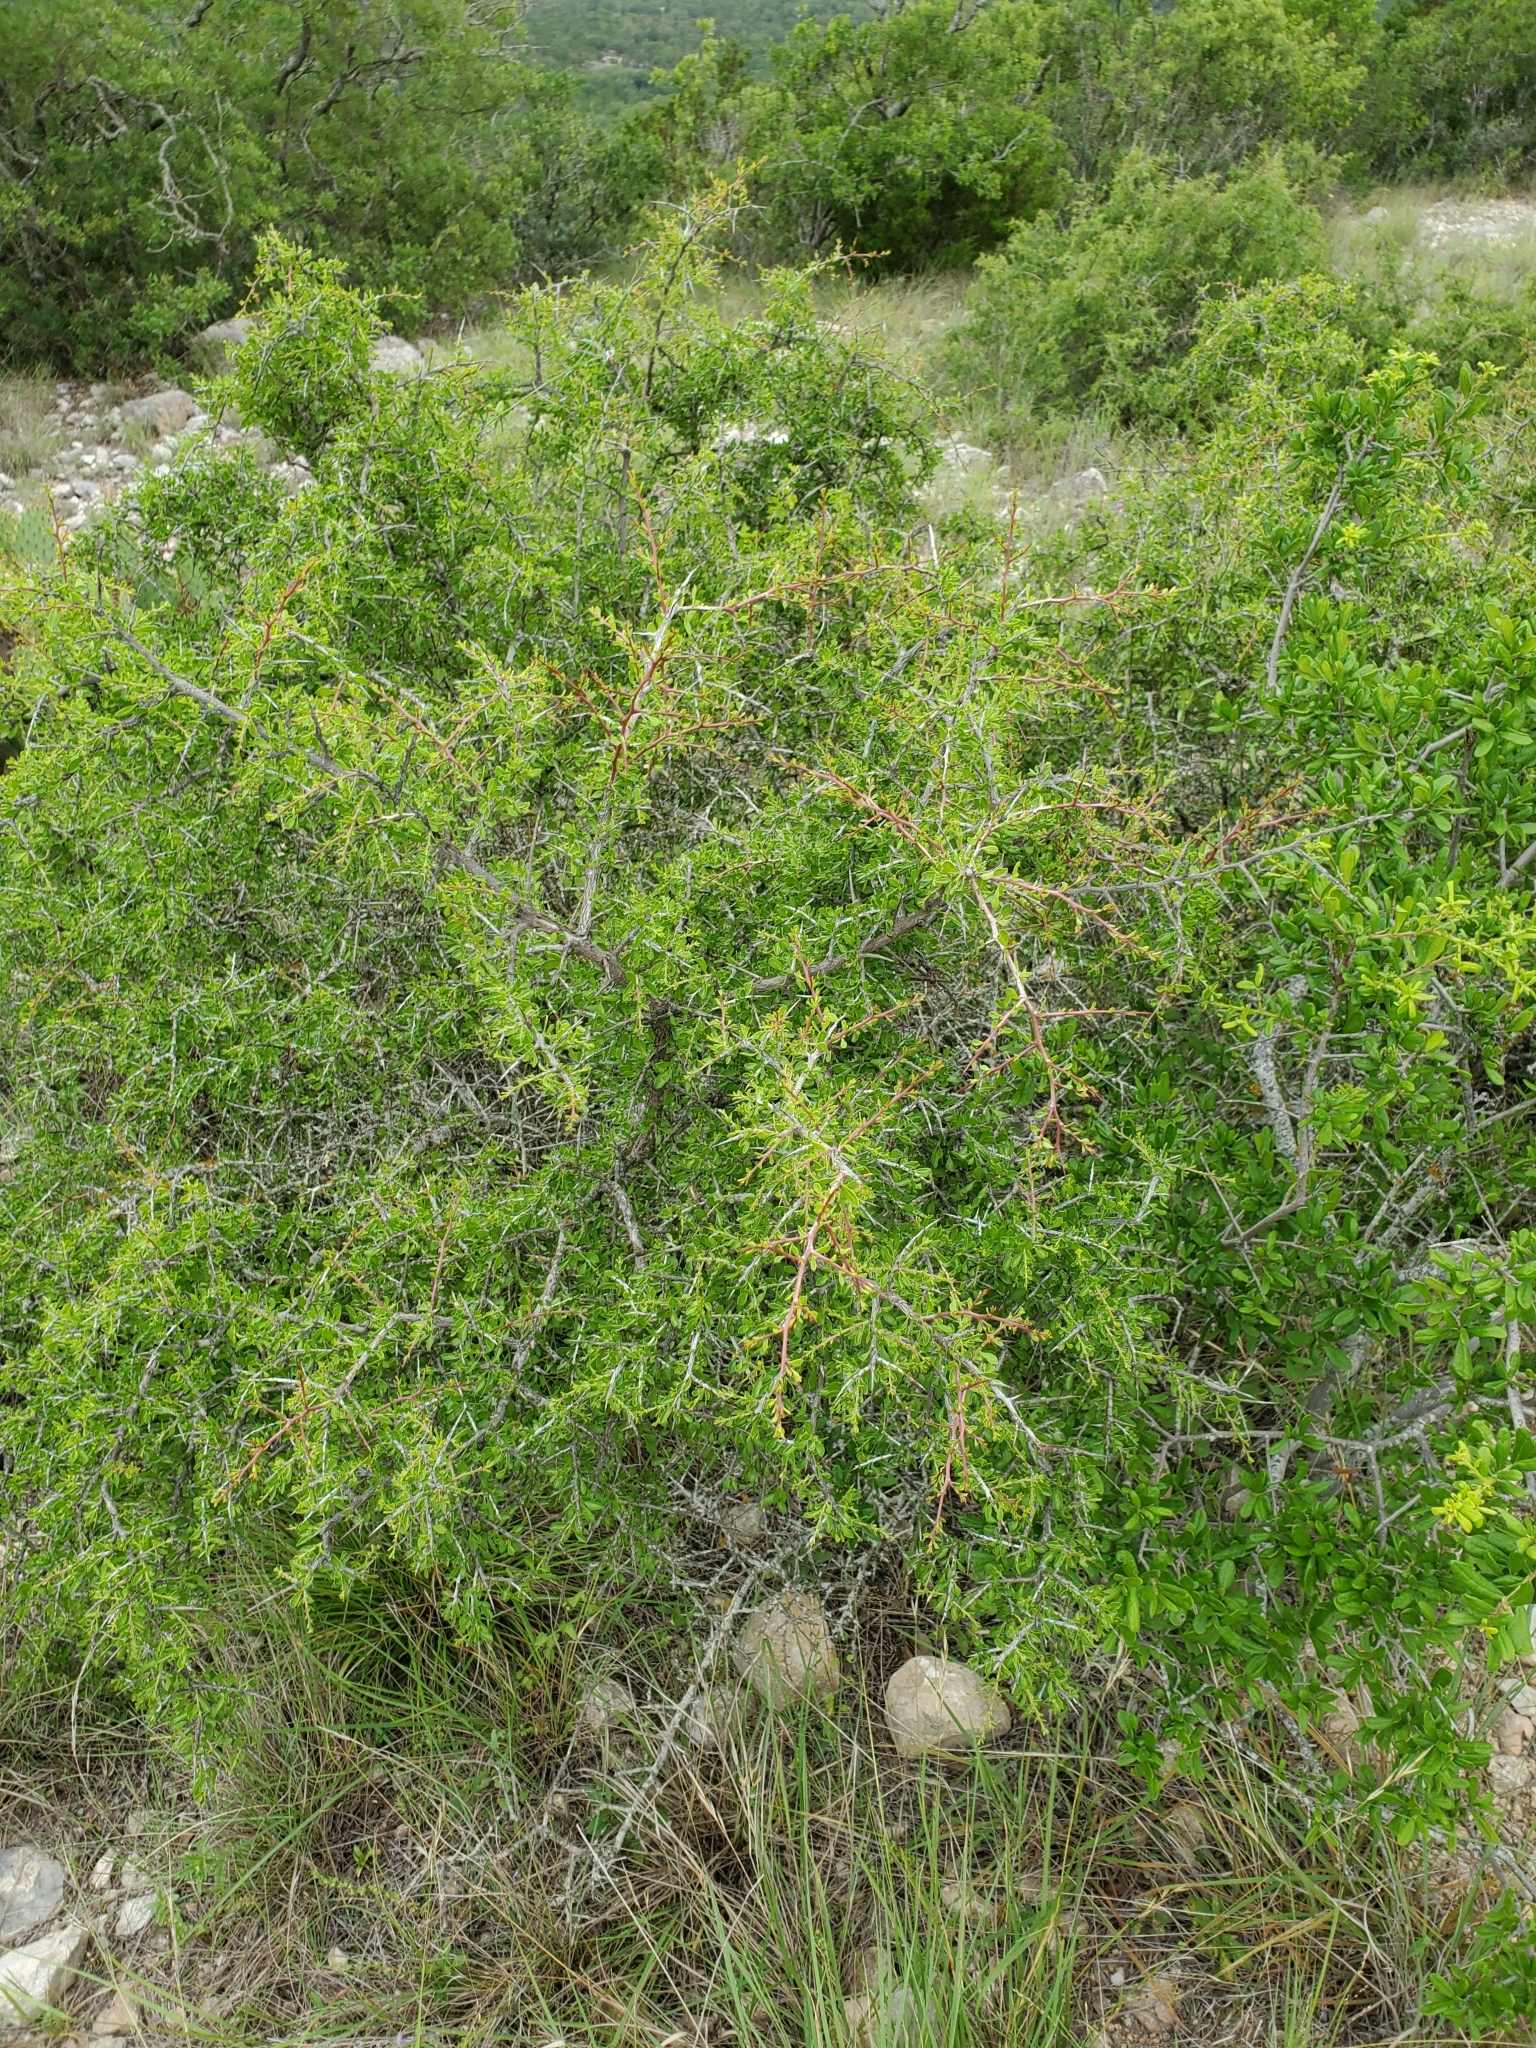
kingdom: Plantae
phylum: Tracheophyta
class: Magnoliopsida
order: Rosales
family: Rhamnaceae
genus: Condalia
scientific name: Condalia viridis
